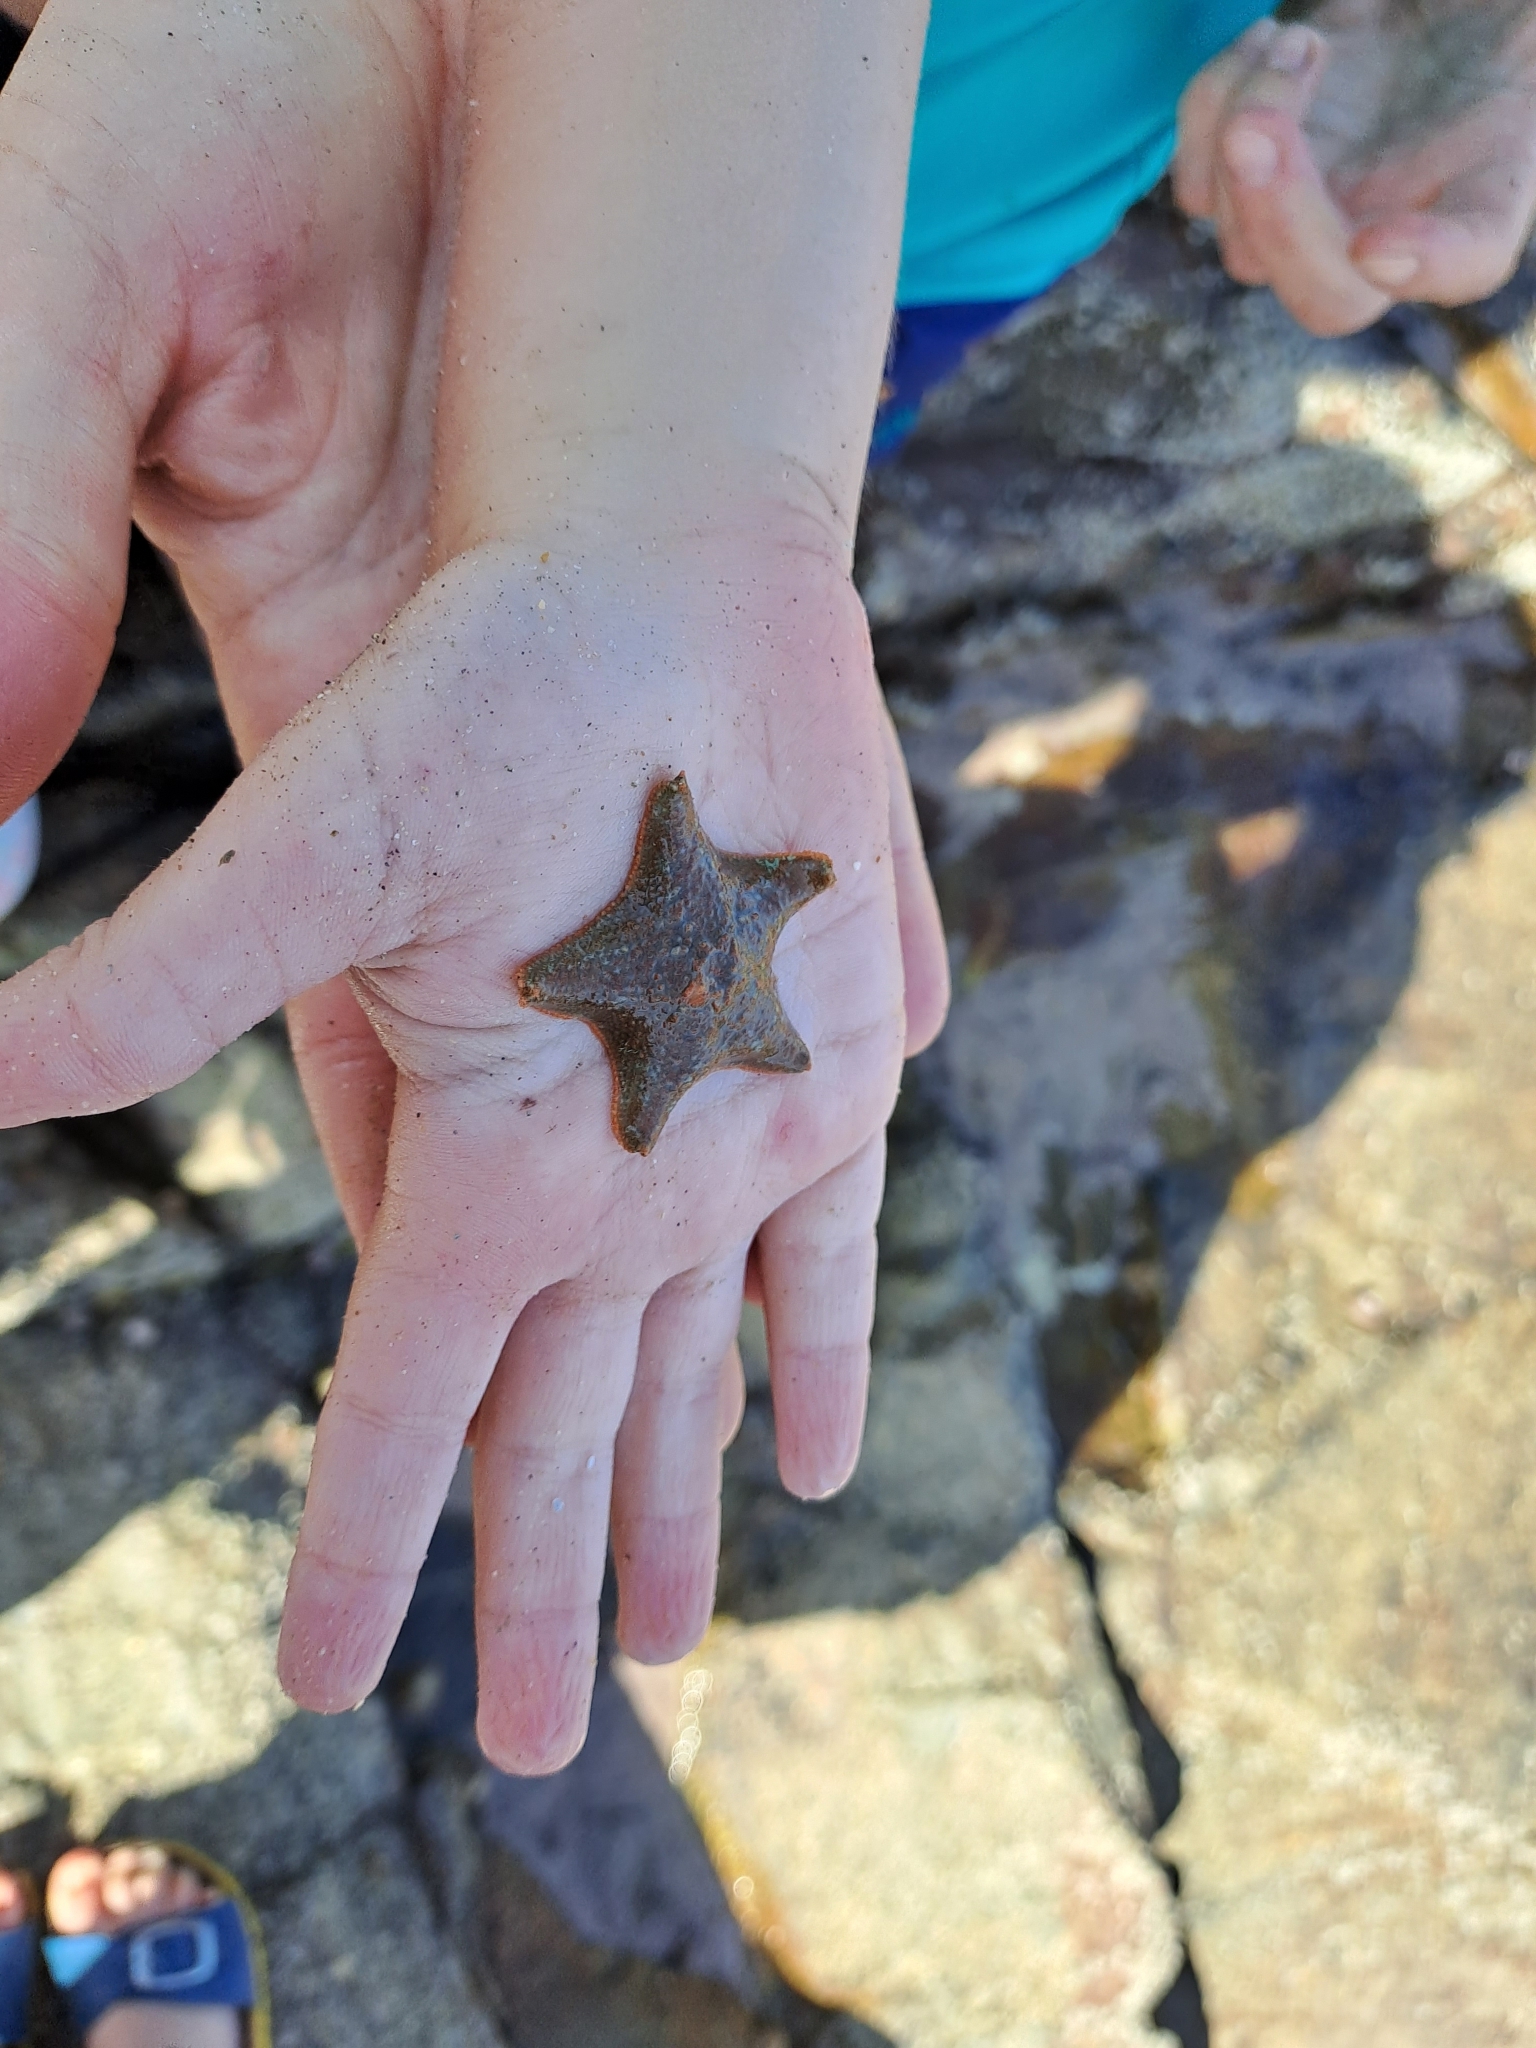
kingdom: Animalia
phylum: Echinodermata
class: Asteroidea
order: Valvatida
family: Asterinidae
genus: Asterina
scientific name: Asterina gibbosa
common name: Cushion star
